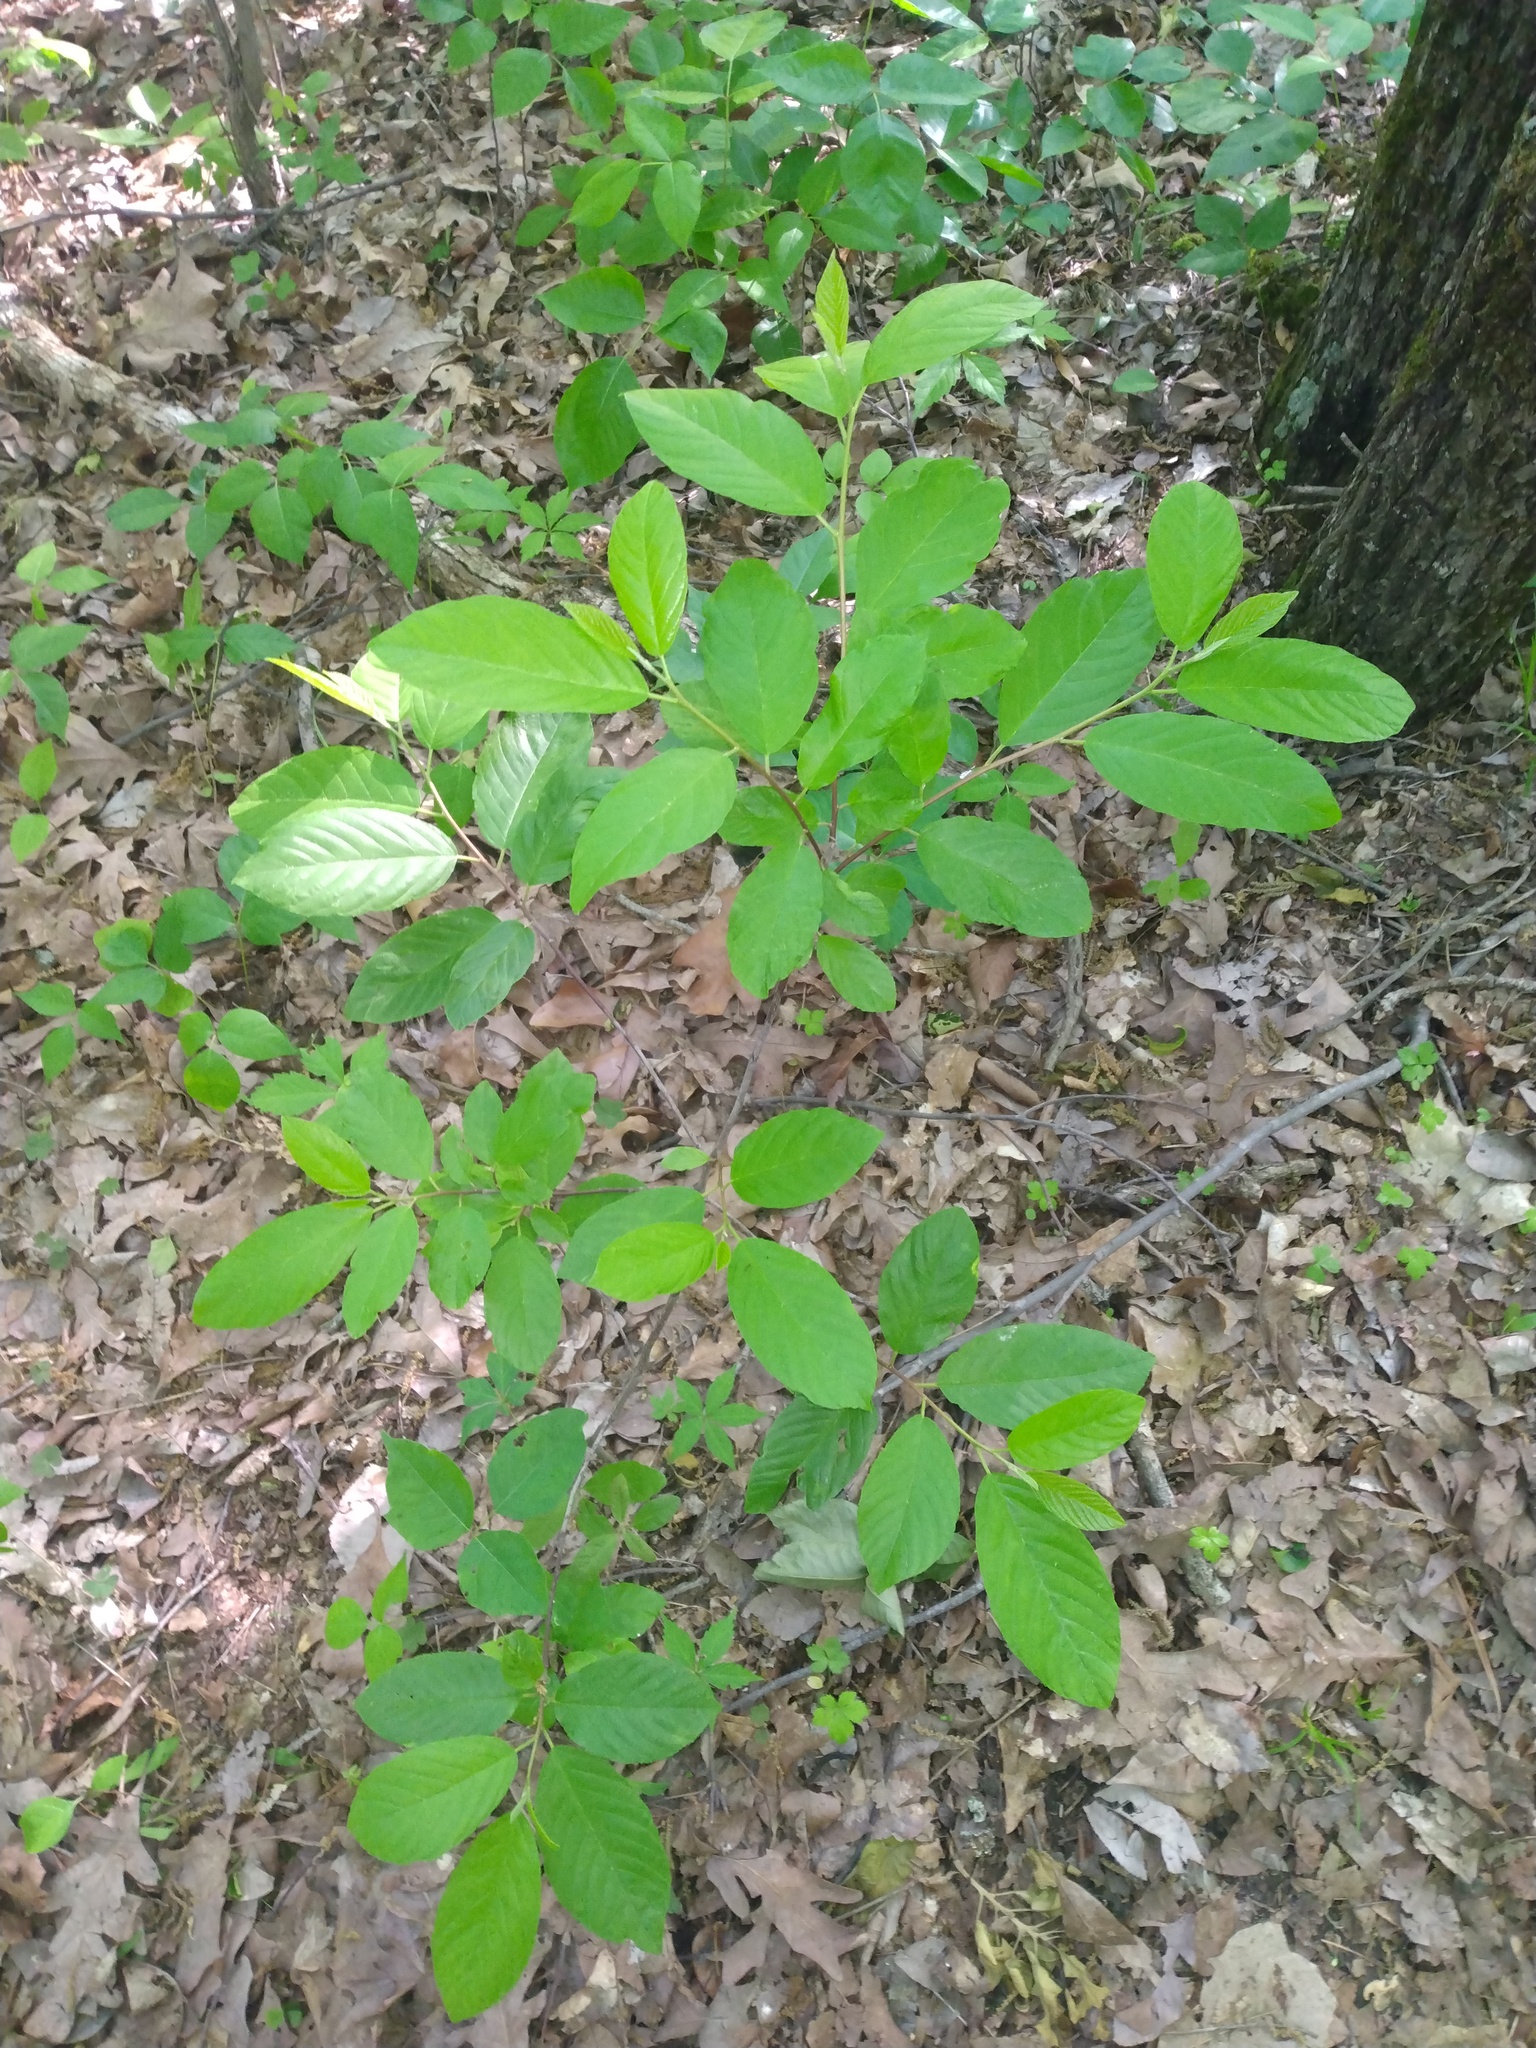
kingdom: Plantae
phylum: Tracheophyta
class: Magnoliopsida
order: Rosales
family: Rhamnaceae
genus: Frangula
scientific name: Frangula caroliniana
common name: Carolina buckthorn
